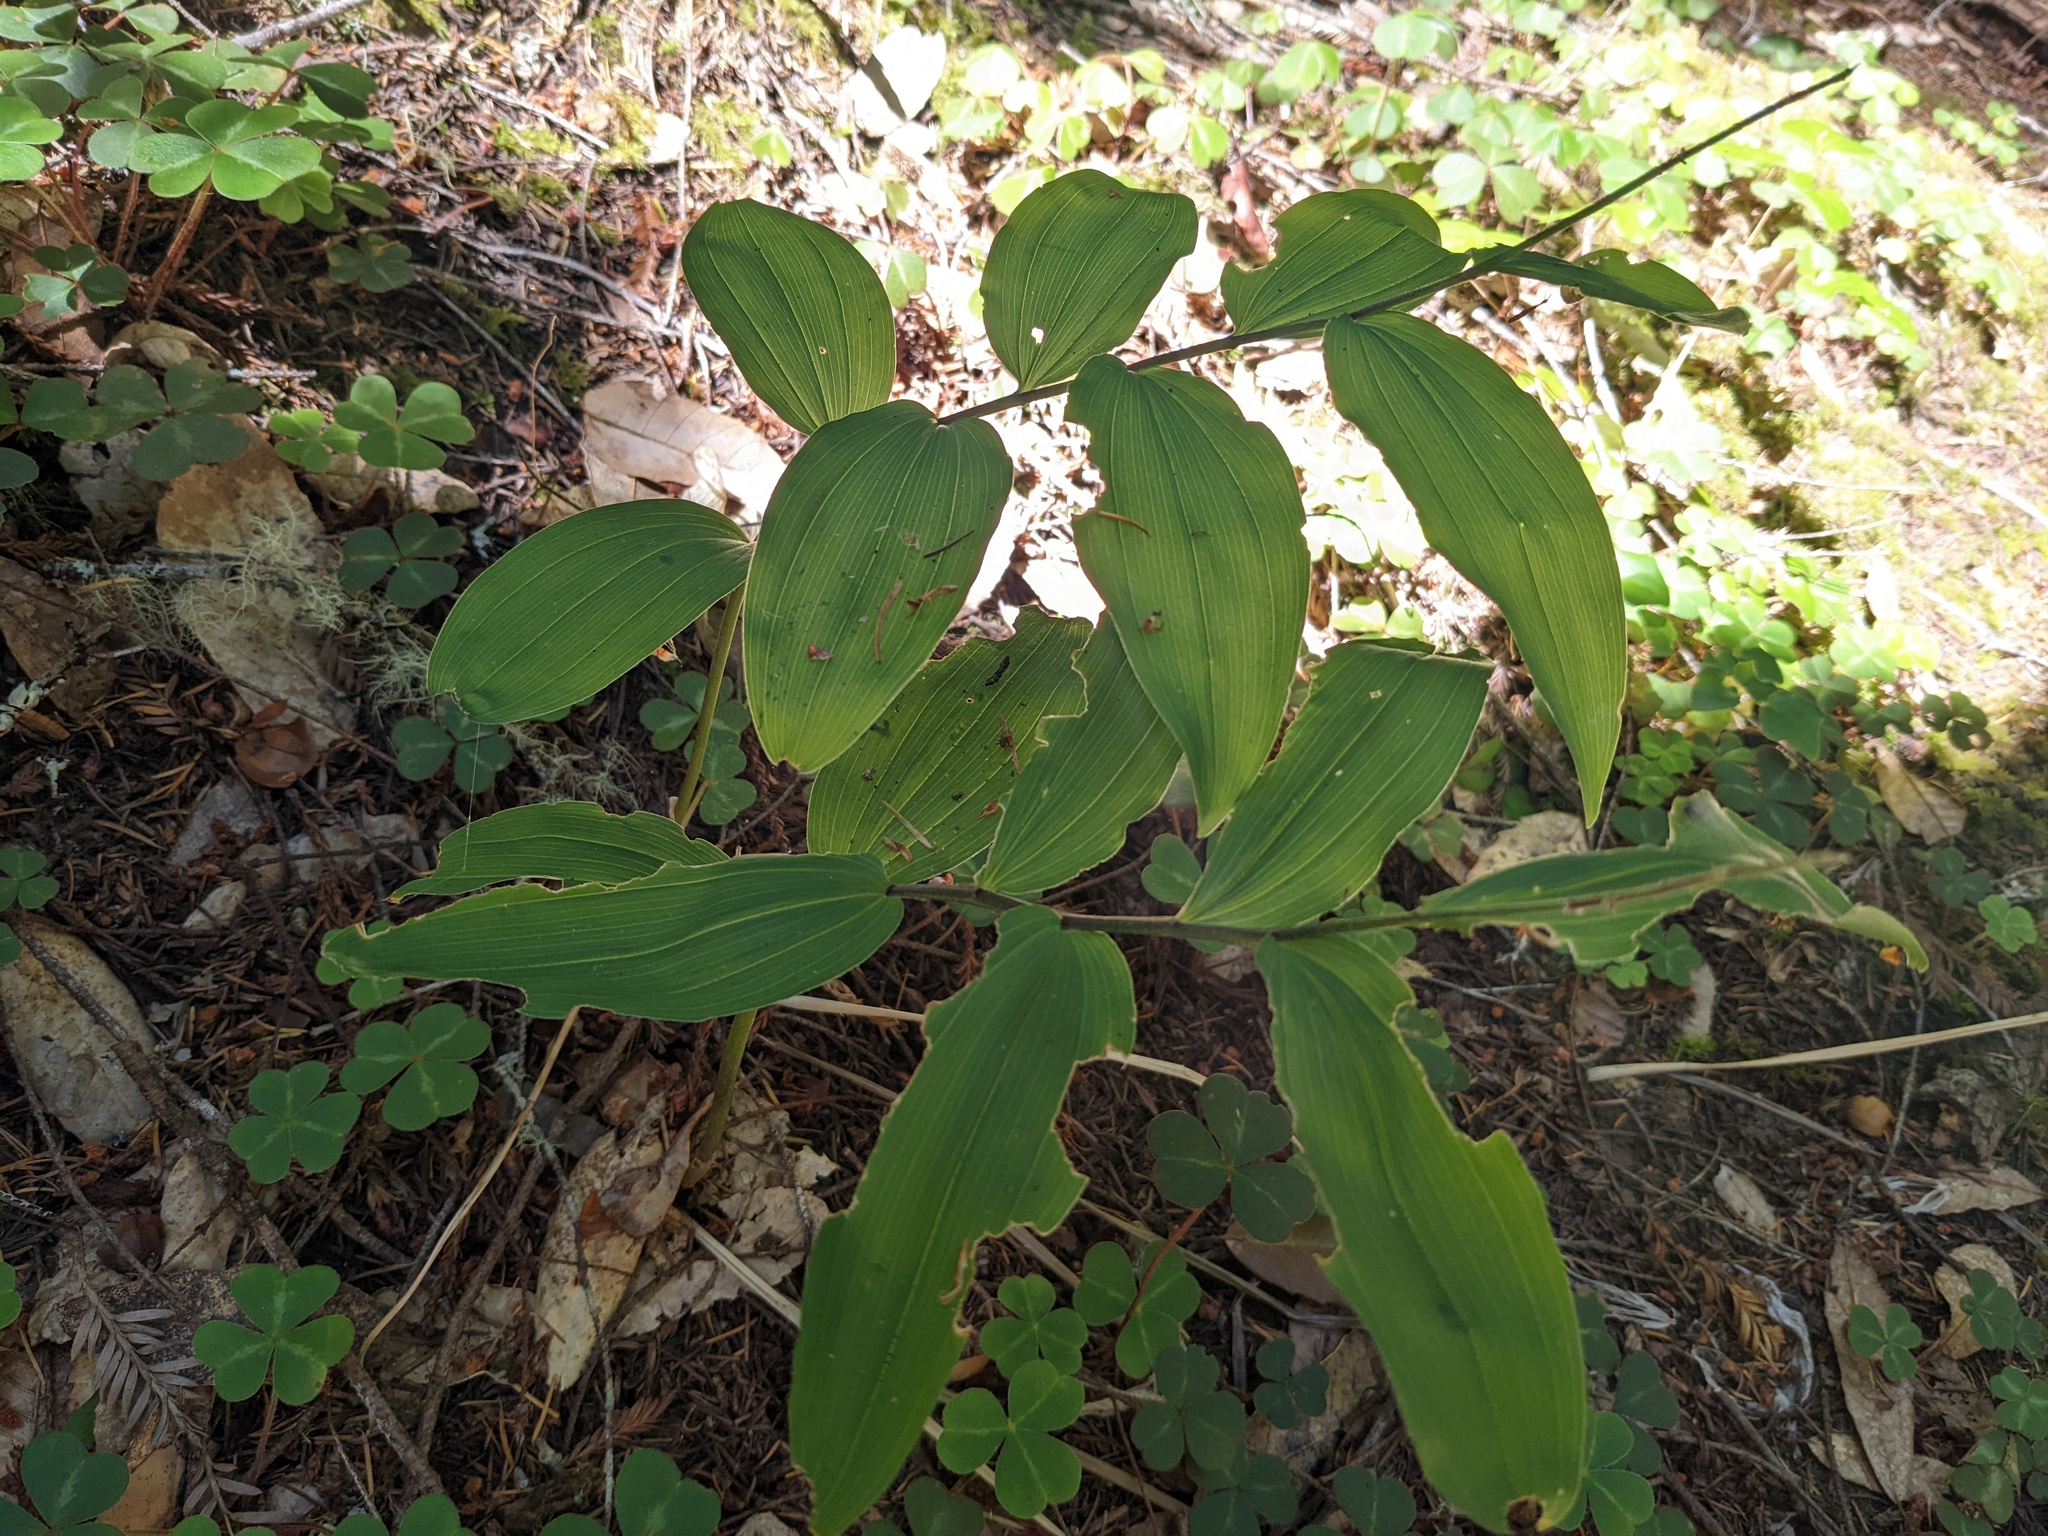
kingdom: Plantae
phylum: Tracheophyta
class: Liliopsida
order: Asparagales
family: Asparagaceae
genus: Maianthemum
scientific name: Maianthemum racemosum
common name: False spikenard
